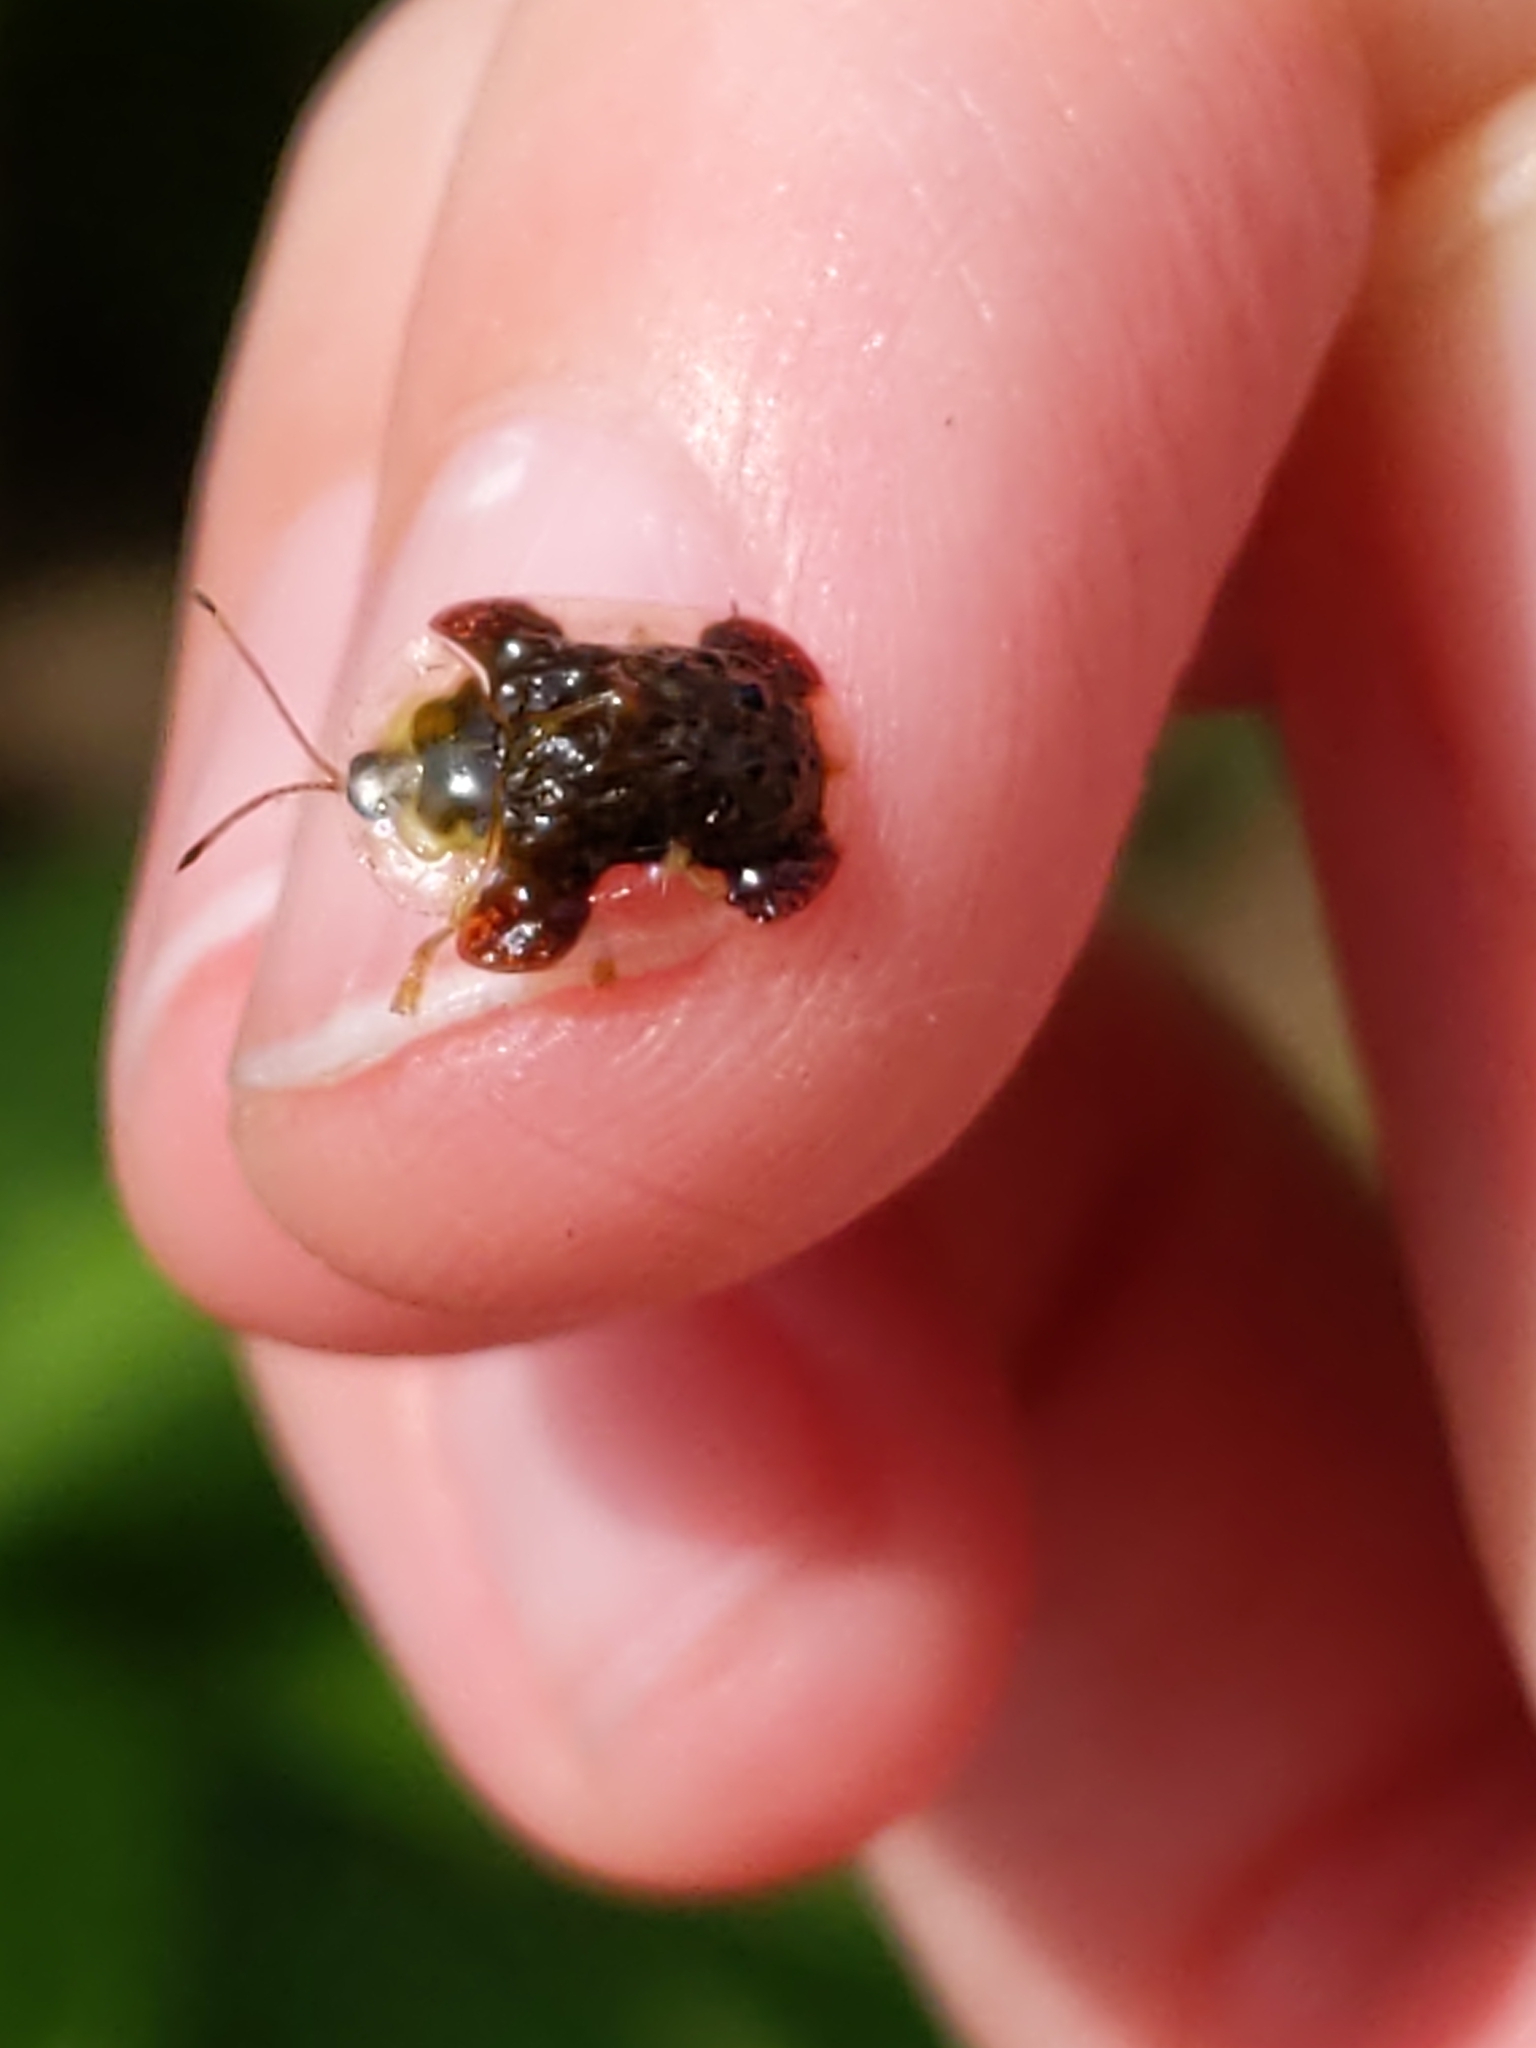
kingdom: Animalia
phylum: Arthropoda
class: Insecta
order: Coleoptera
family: Chrysomelidae
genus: Helocassis
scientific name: Helocassis clavata
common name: Clavate tortoise beetle
